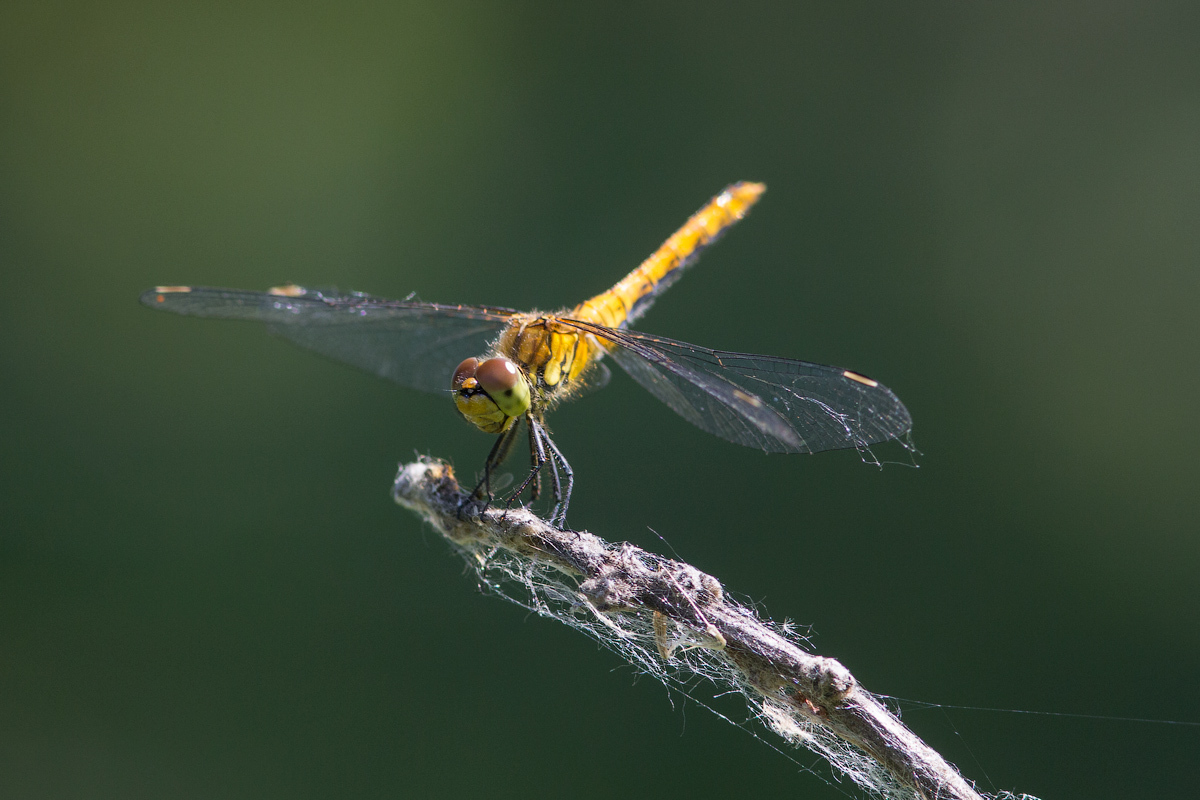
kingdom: Animalia
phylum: Arthropoda
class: Insecta
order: Odonata
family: Libellulidae
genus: Sympetrum
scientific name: Sympetrum sanguineum
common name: Ruddy darter
